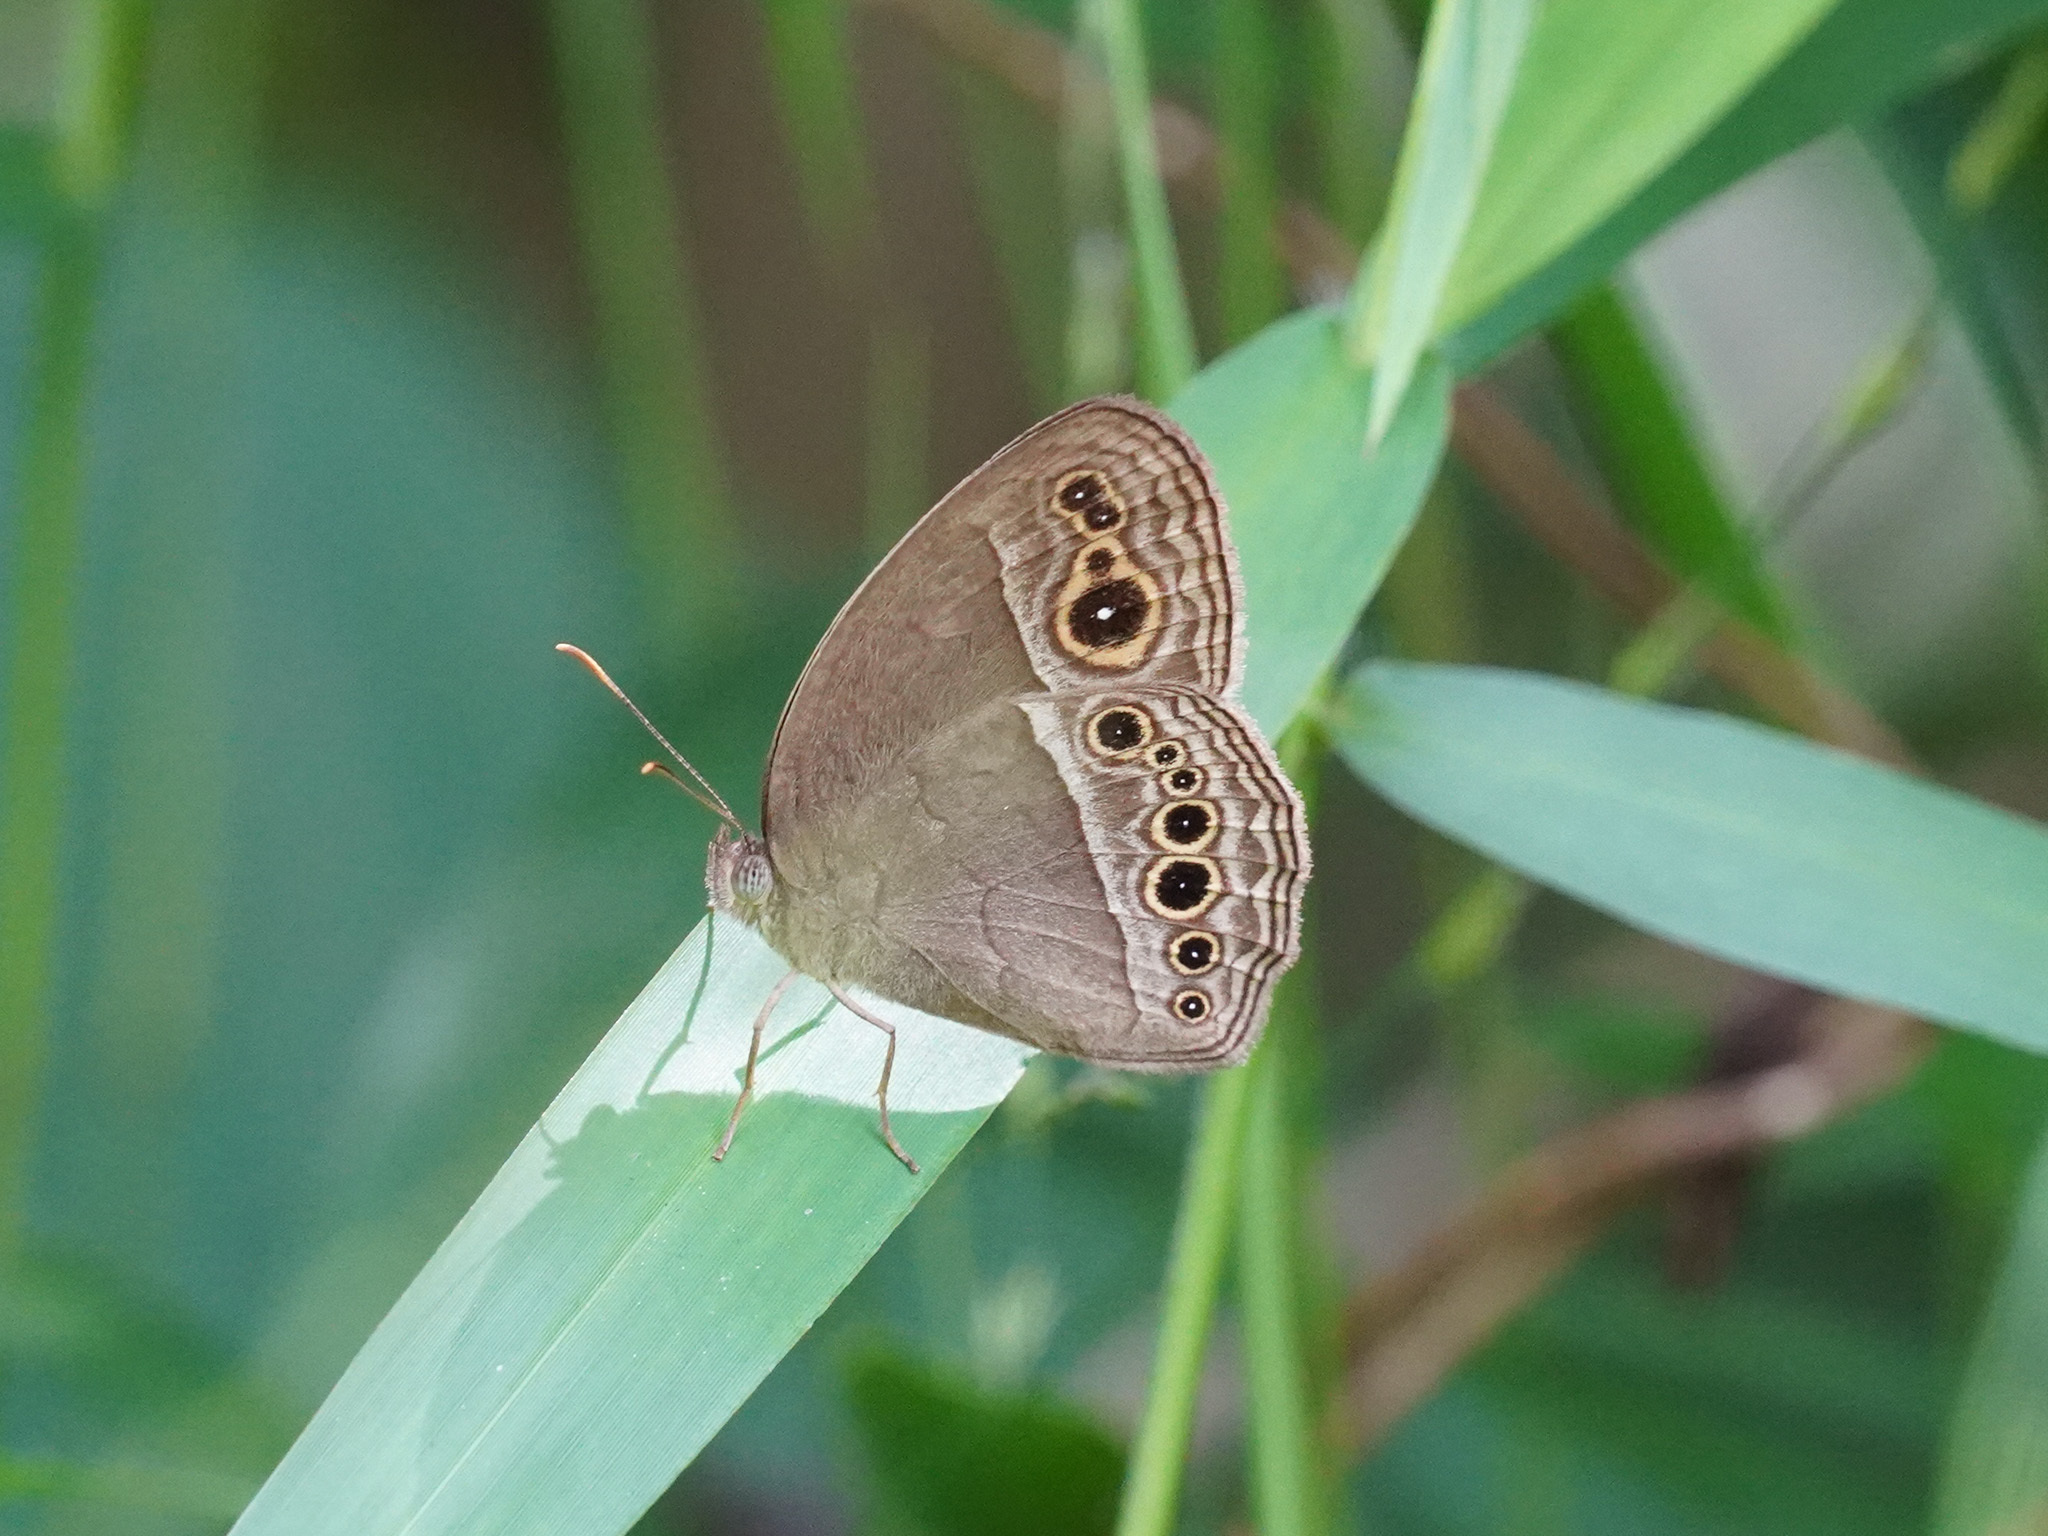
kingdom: Animalia
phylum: Arthropoda
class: Insecta
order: Lepidoptera
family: Nymphalidae
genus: Mycalesis
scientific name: Mycalesis perseoides
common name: Burmese bushbrown
